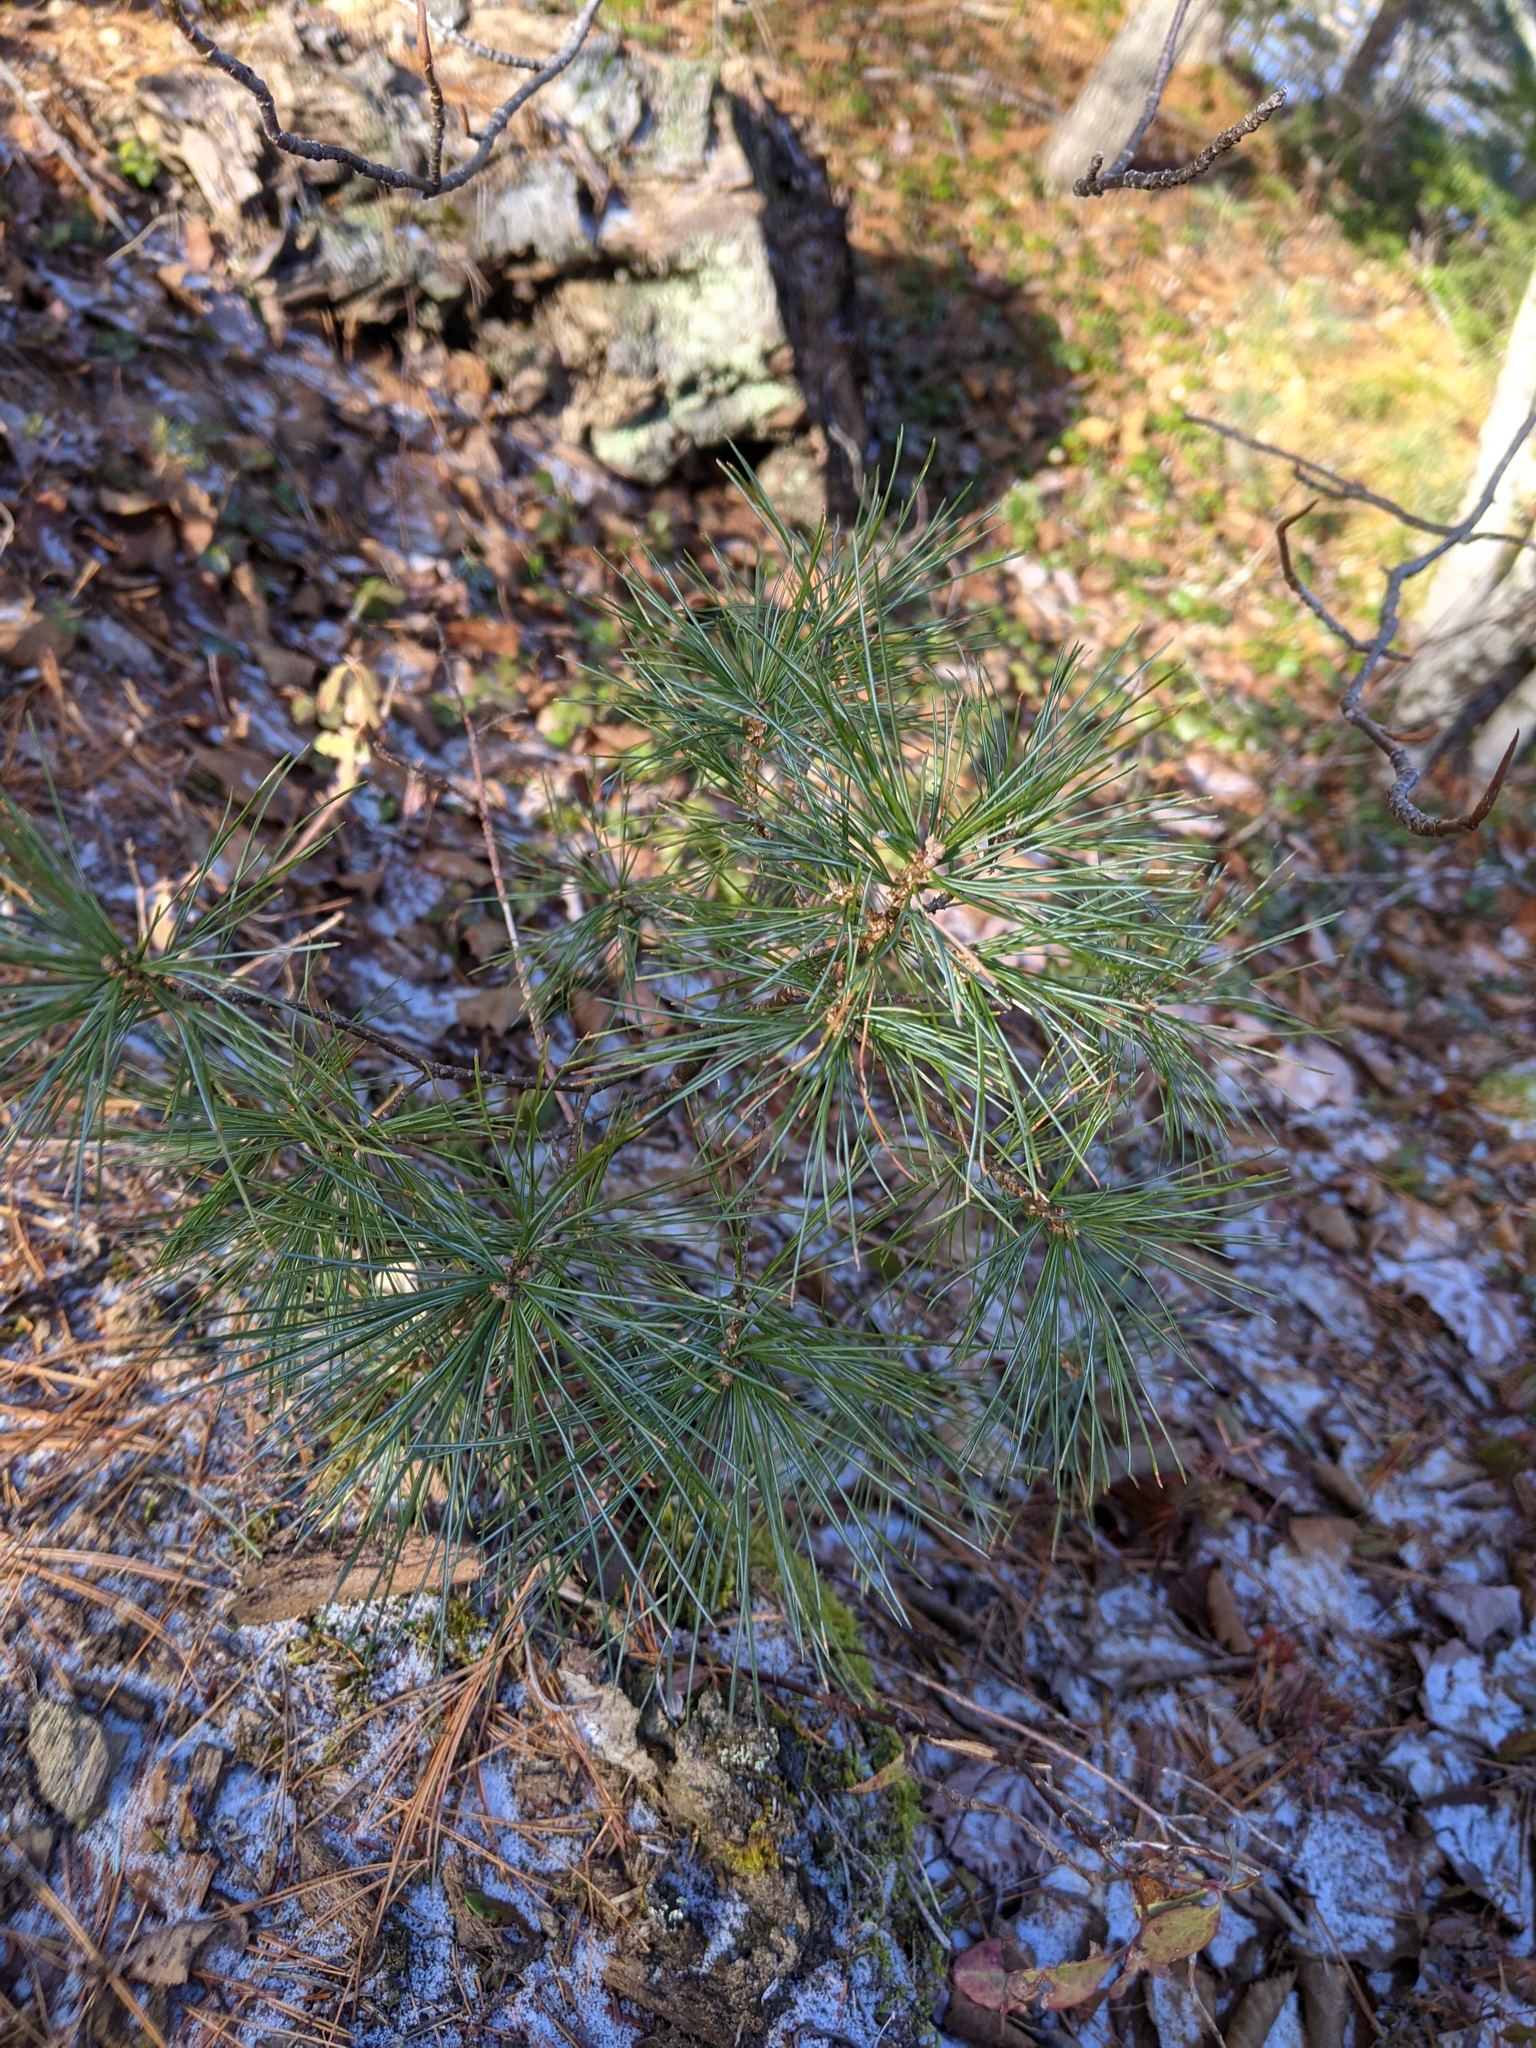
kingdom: Plantae
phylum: Tracheophyta
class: Pinopsida
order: Pinales
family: Pinaceae
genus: Pinus
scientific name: Pinus strobus
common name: Weymouth pine
